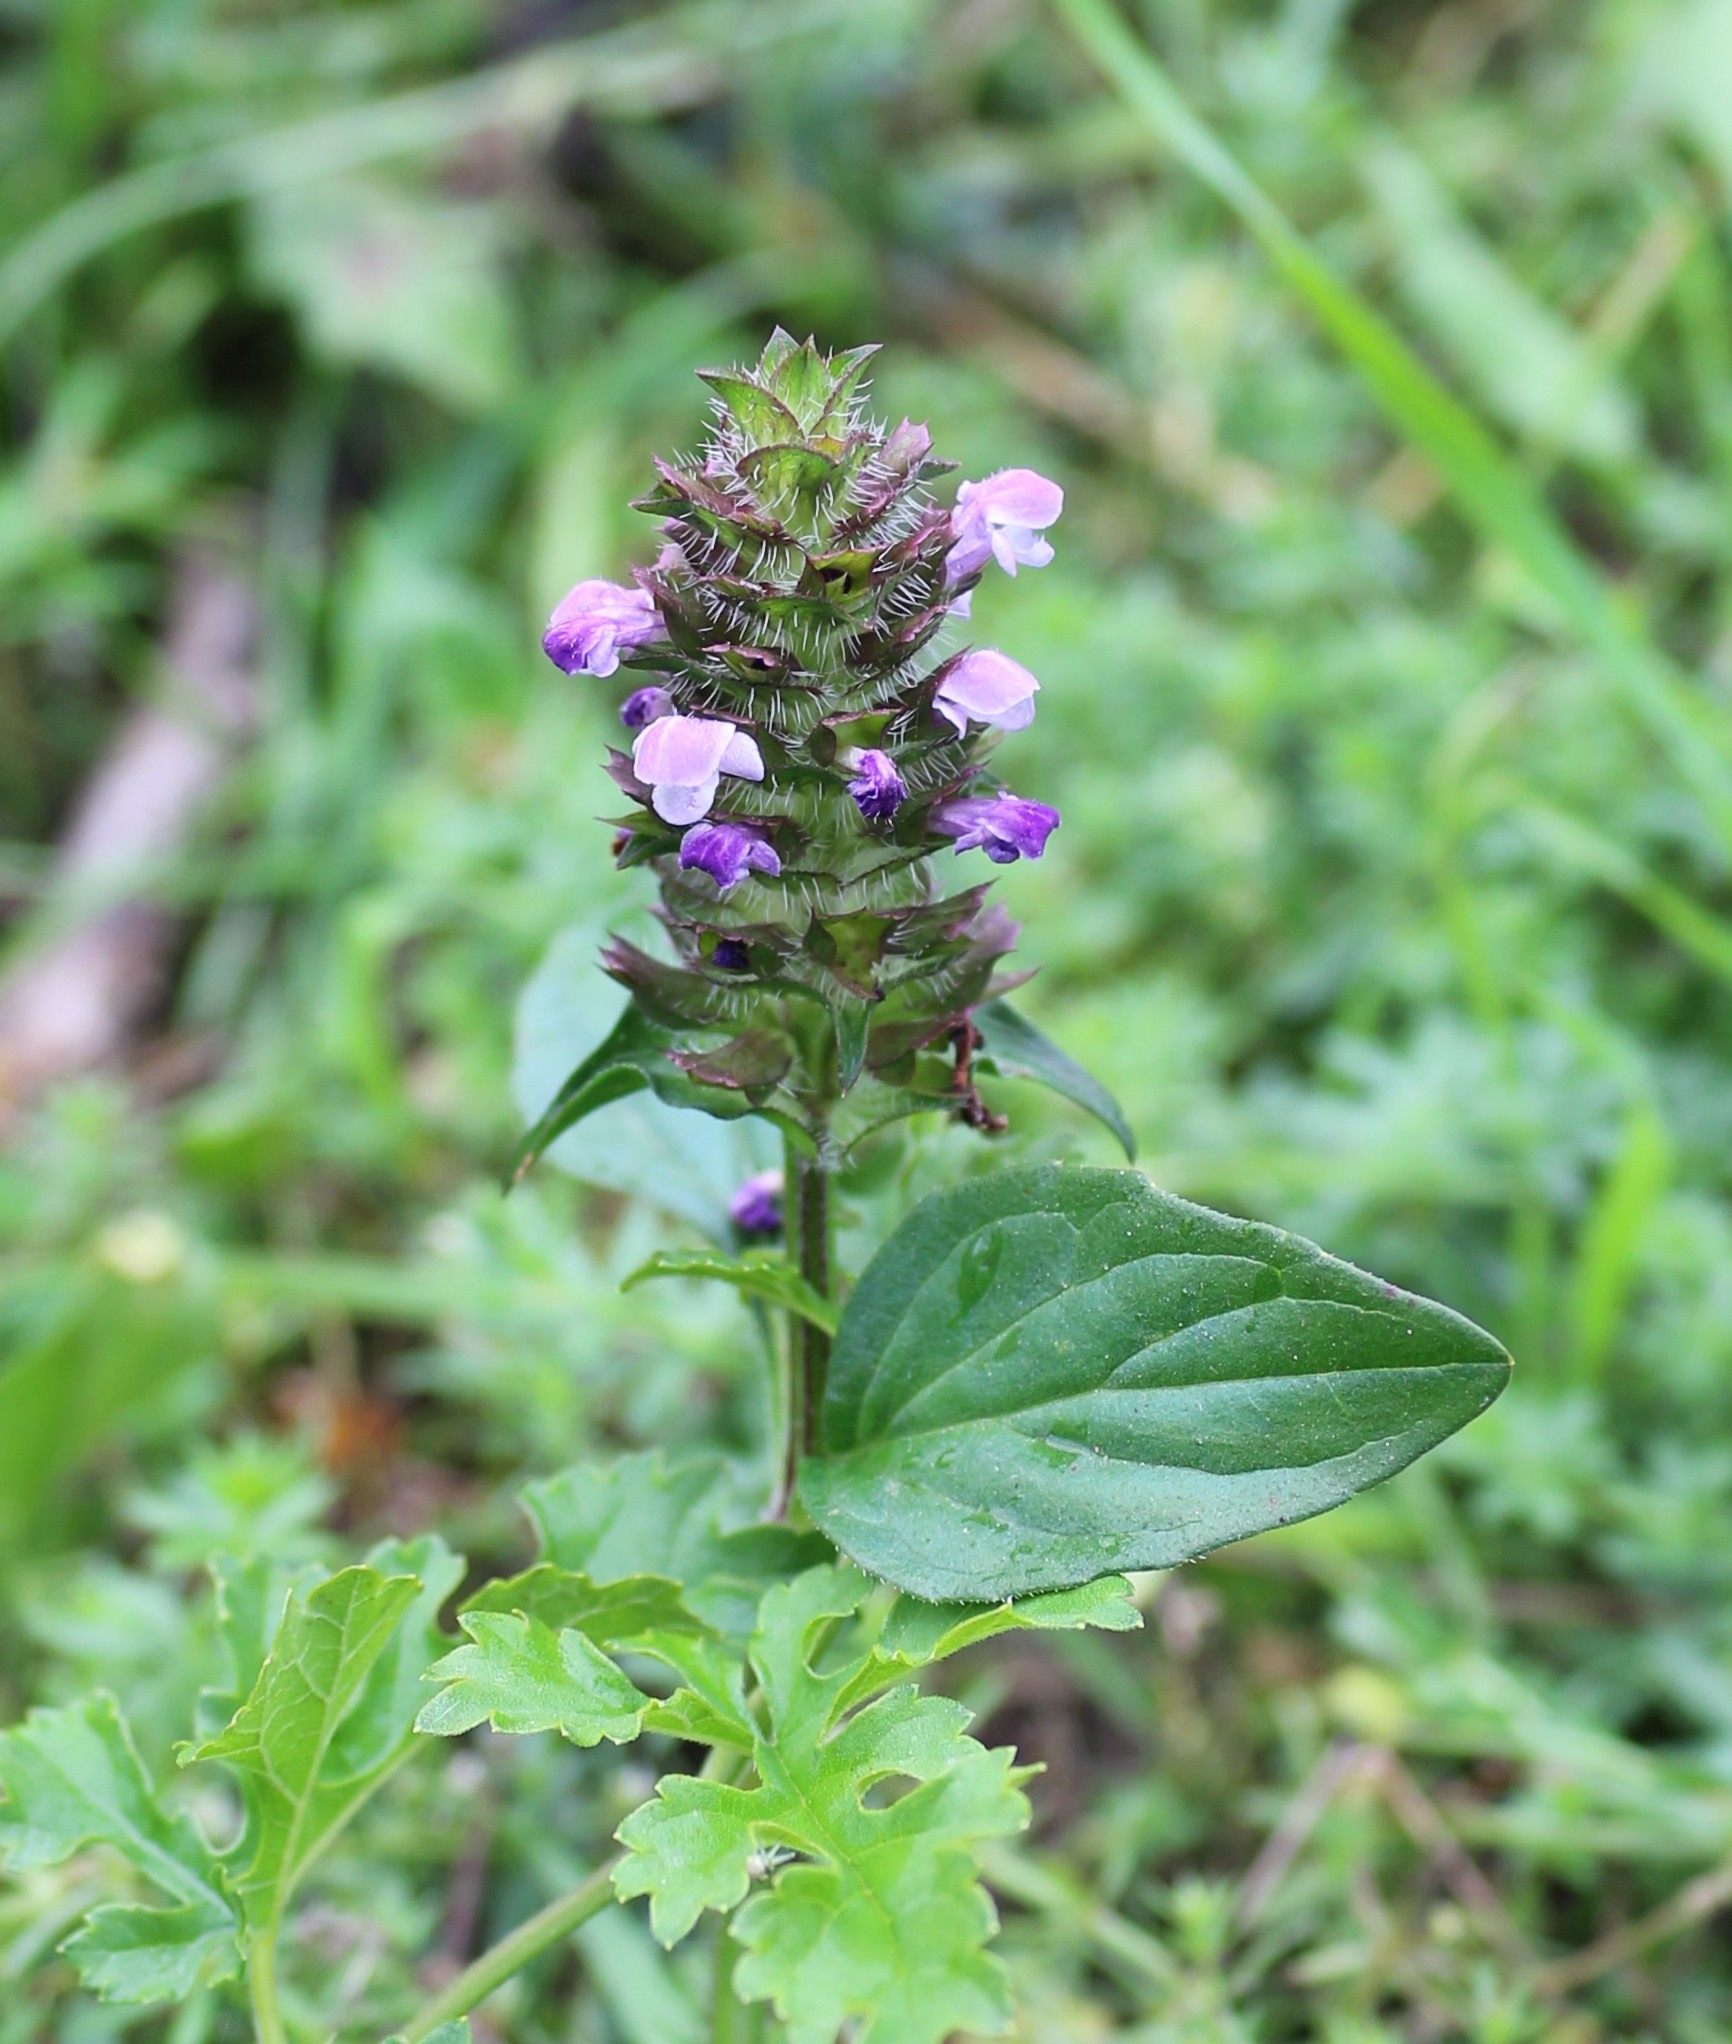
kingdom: Plantae
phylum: Tracheophyta
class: Magnoliopsida
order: Lamiales
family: Lamiaceae
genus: Prunella
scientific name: Prunella vulgaris
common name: Heal-all
